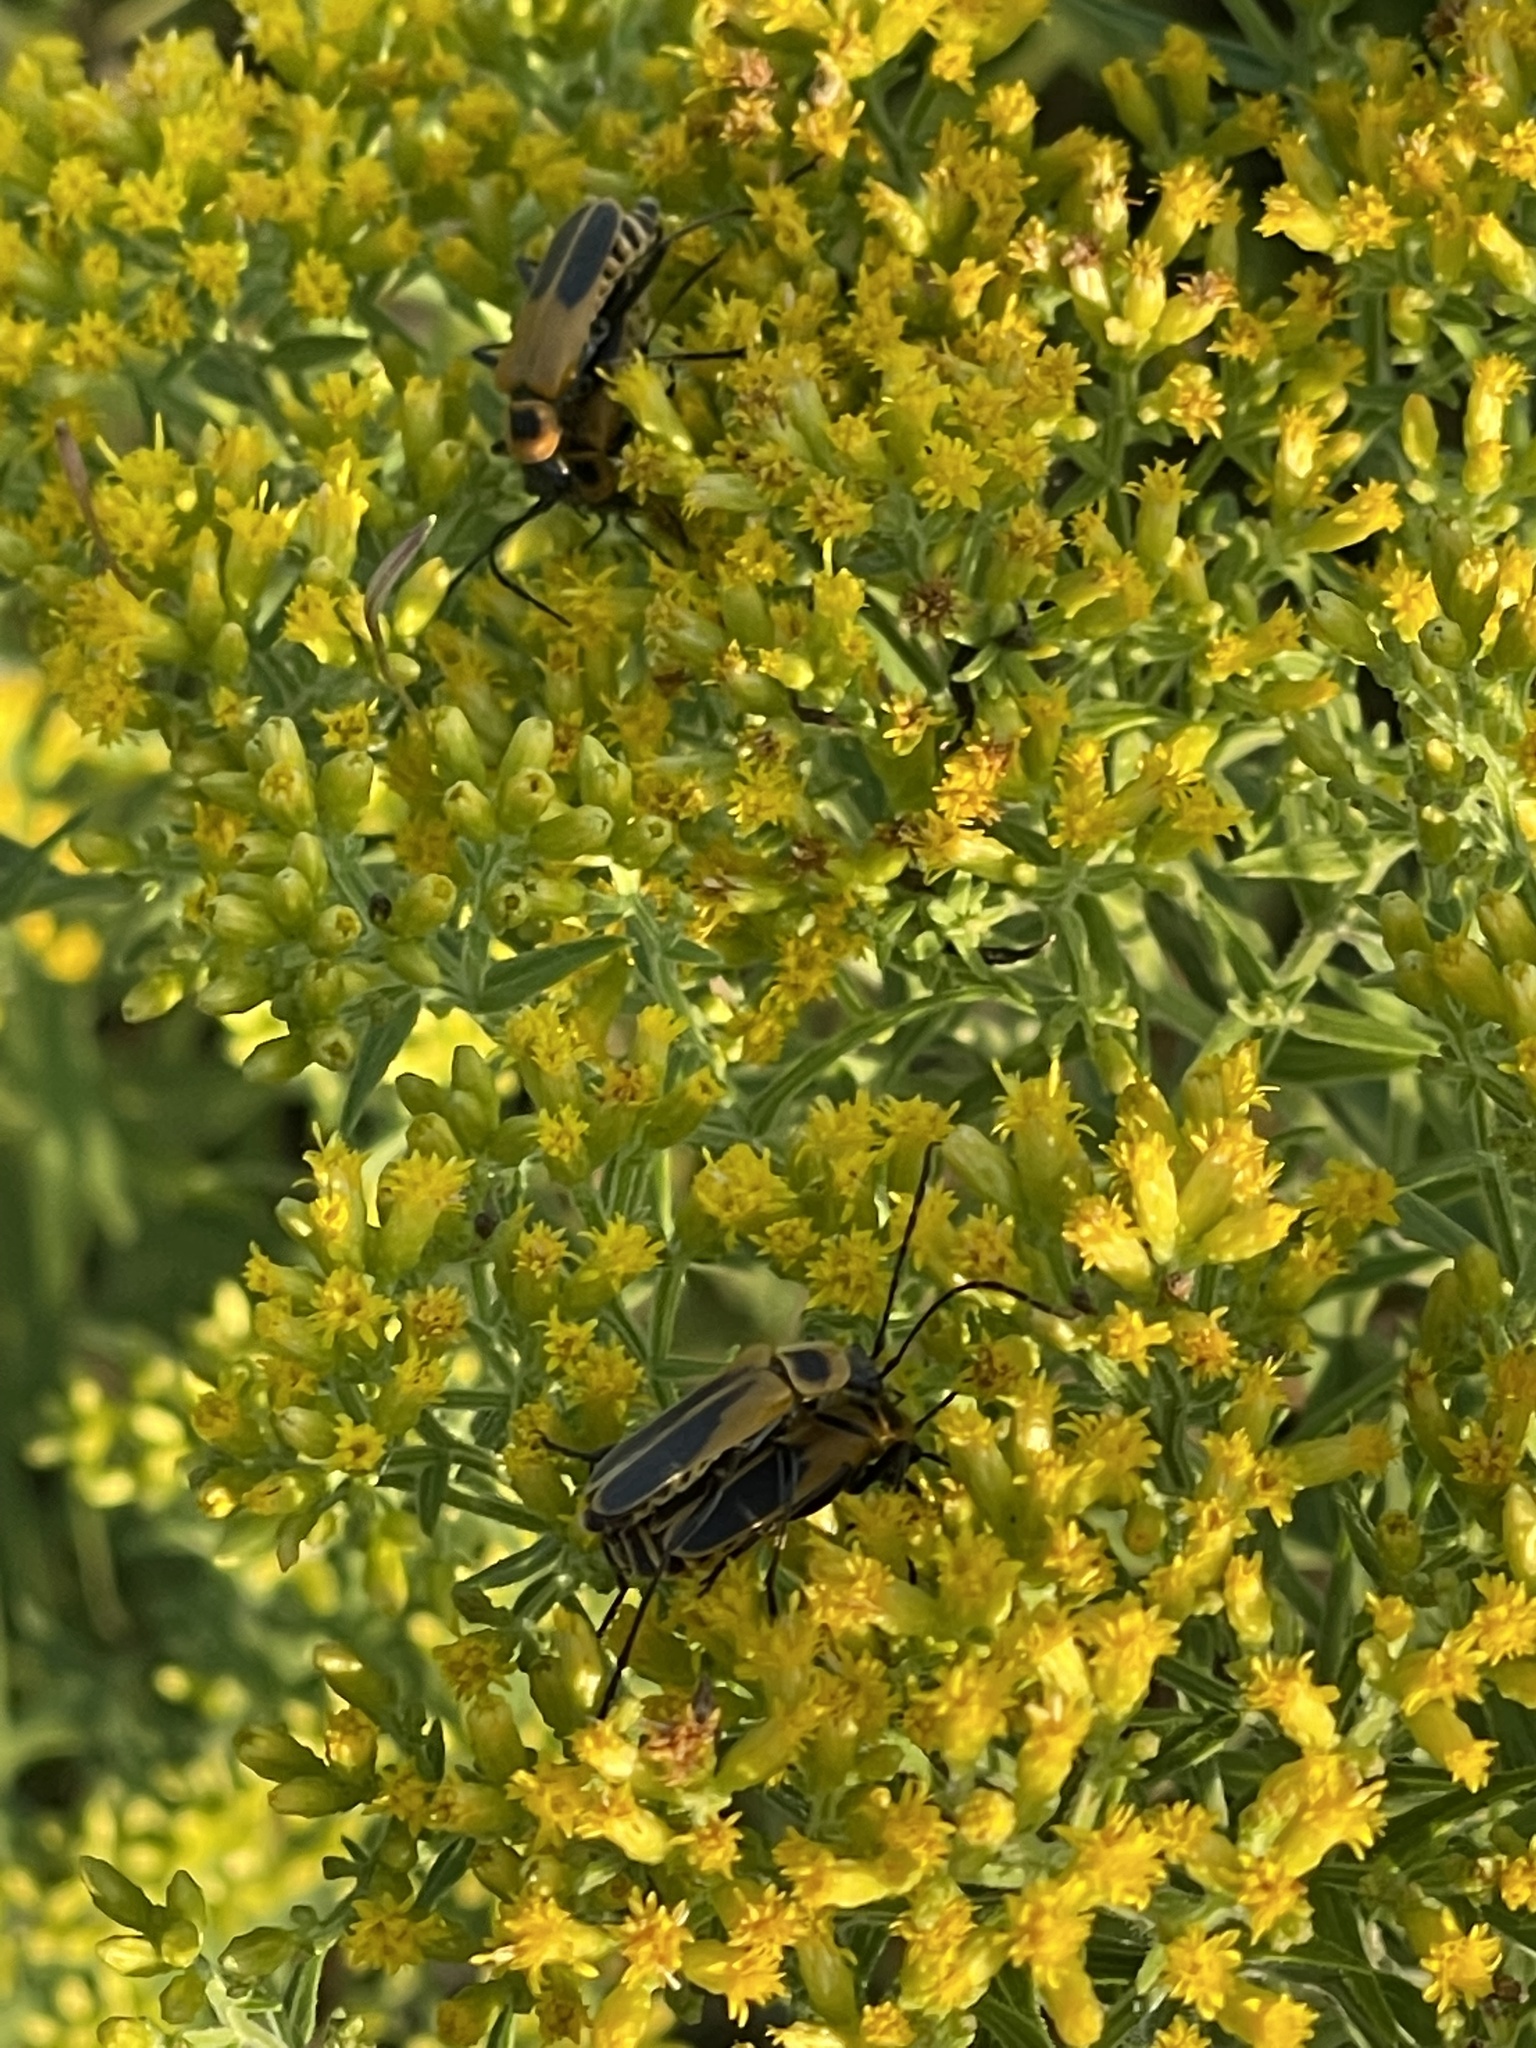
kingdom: Animalia
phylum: Arthropoda
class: Insecta
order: Coleoptera
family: Cantharidae
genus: Chauliognathus
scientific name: Chauliognathus pensylvanicus
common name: Goldenrod soldier beetle
